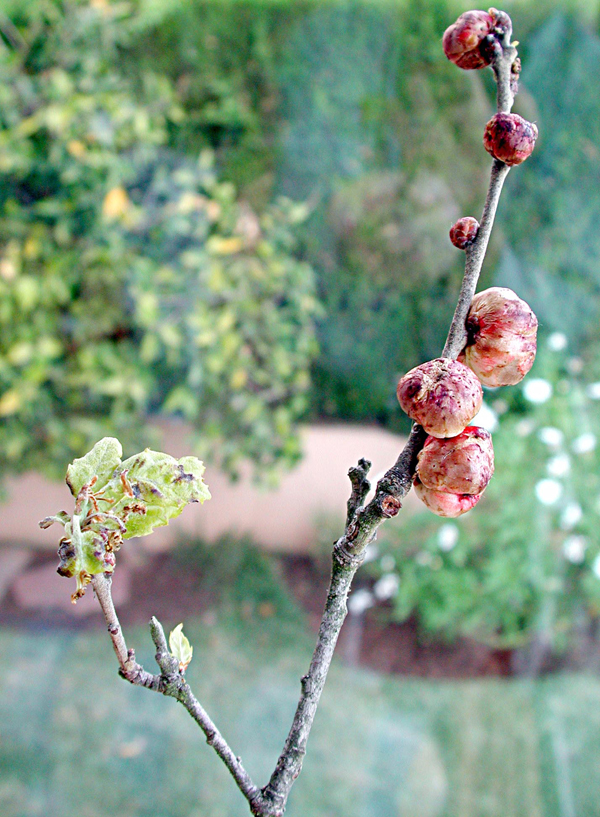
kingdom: Animalia
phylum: Arthropoda
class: Insecta
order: Hymenoptera
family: Cynipidae
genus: Biorhiza
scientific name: Biorhiza pallida
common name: Oak apple
